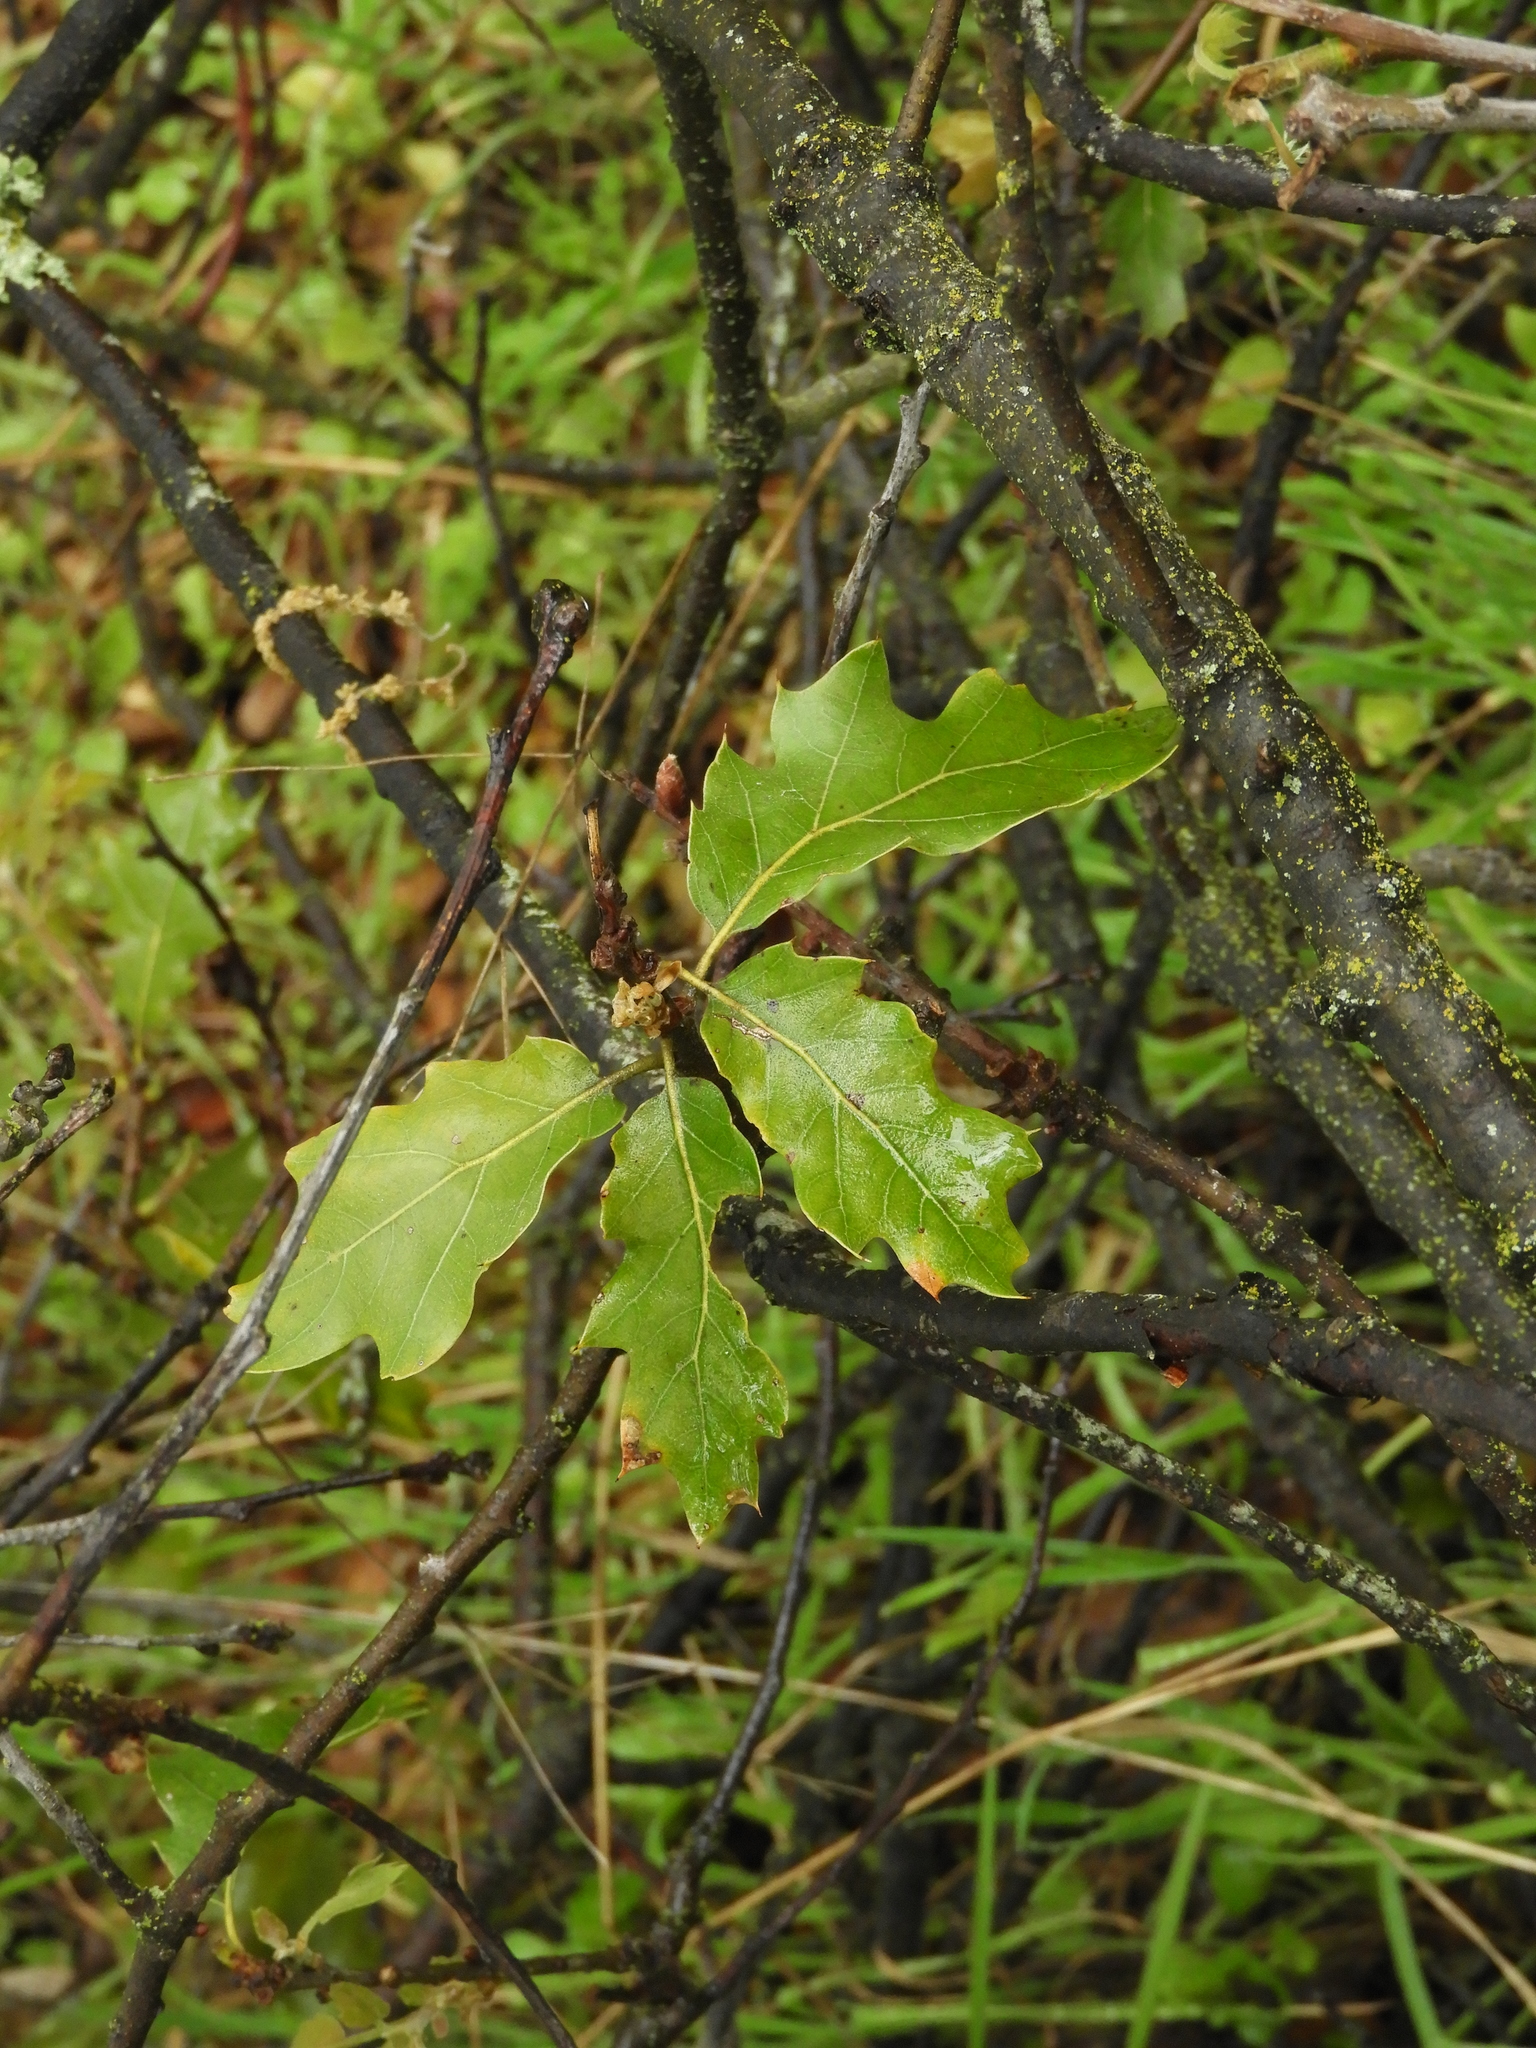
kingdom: Plantae
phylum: Tracheophyta
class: Magnoliopsida
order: Fagales
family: Fagaceae
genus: Quercus
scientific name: Quercus morehus
